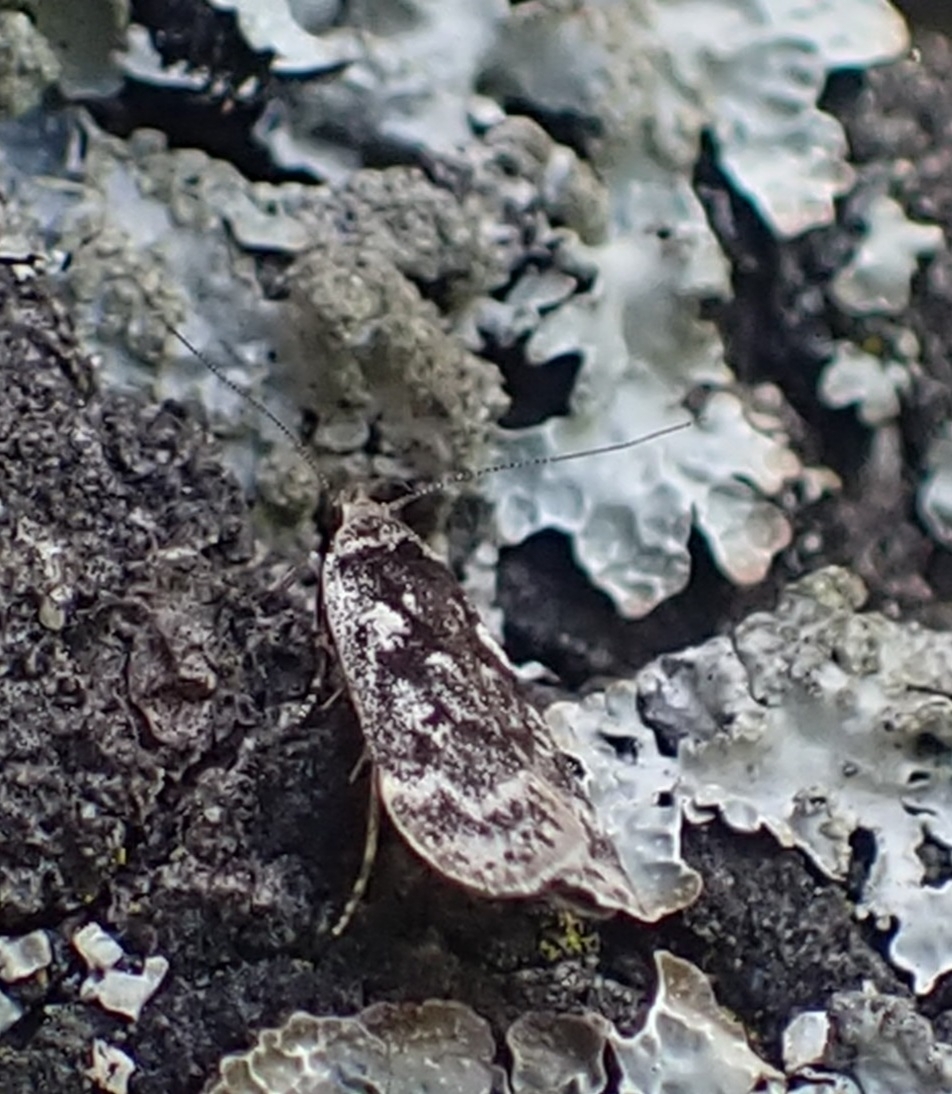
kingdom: Animalia
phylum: Arthropoda
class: Insecta
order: Lepidoptera
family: Gelechiidae
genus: Anacampsis
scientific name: Anacampsis blattariella
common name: Birch sober
